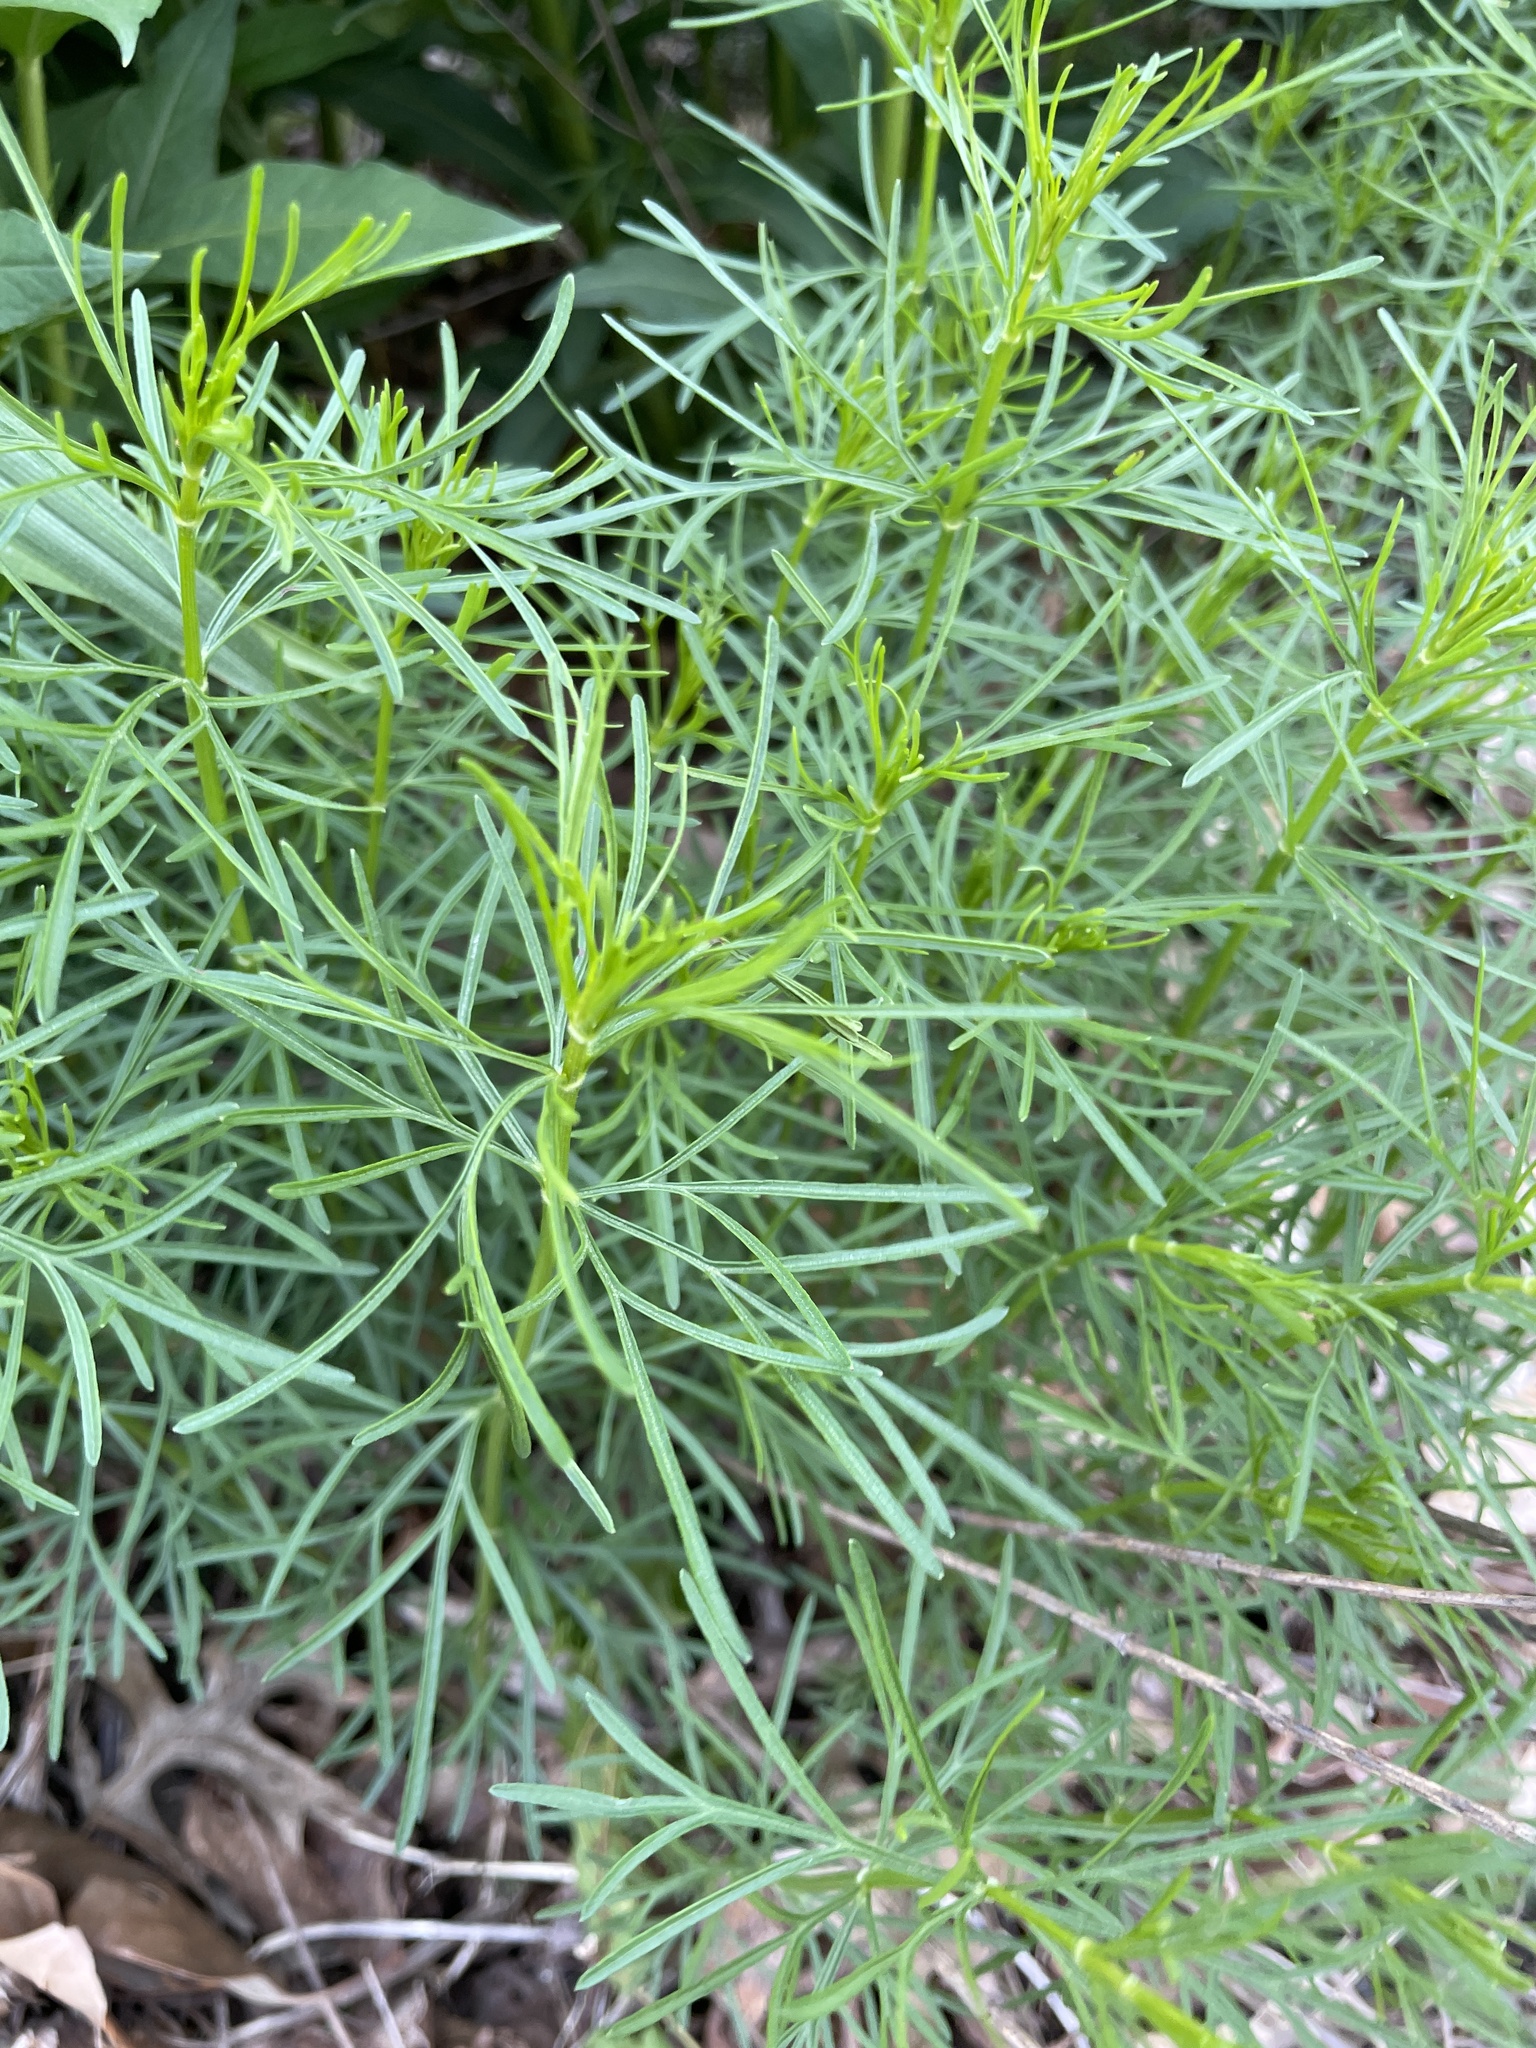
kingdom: Plantae
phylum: Tracheophyta
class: Magnoliopsida
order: Asterales
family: Asteraceae
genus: Coreopsis
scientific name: Coreopsis verticillata
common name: Whorled tickseed
